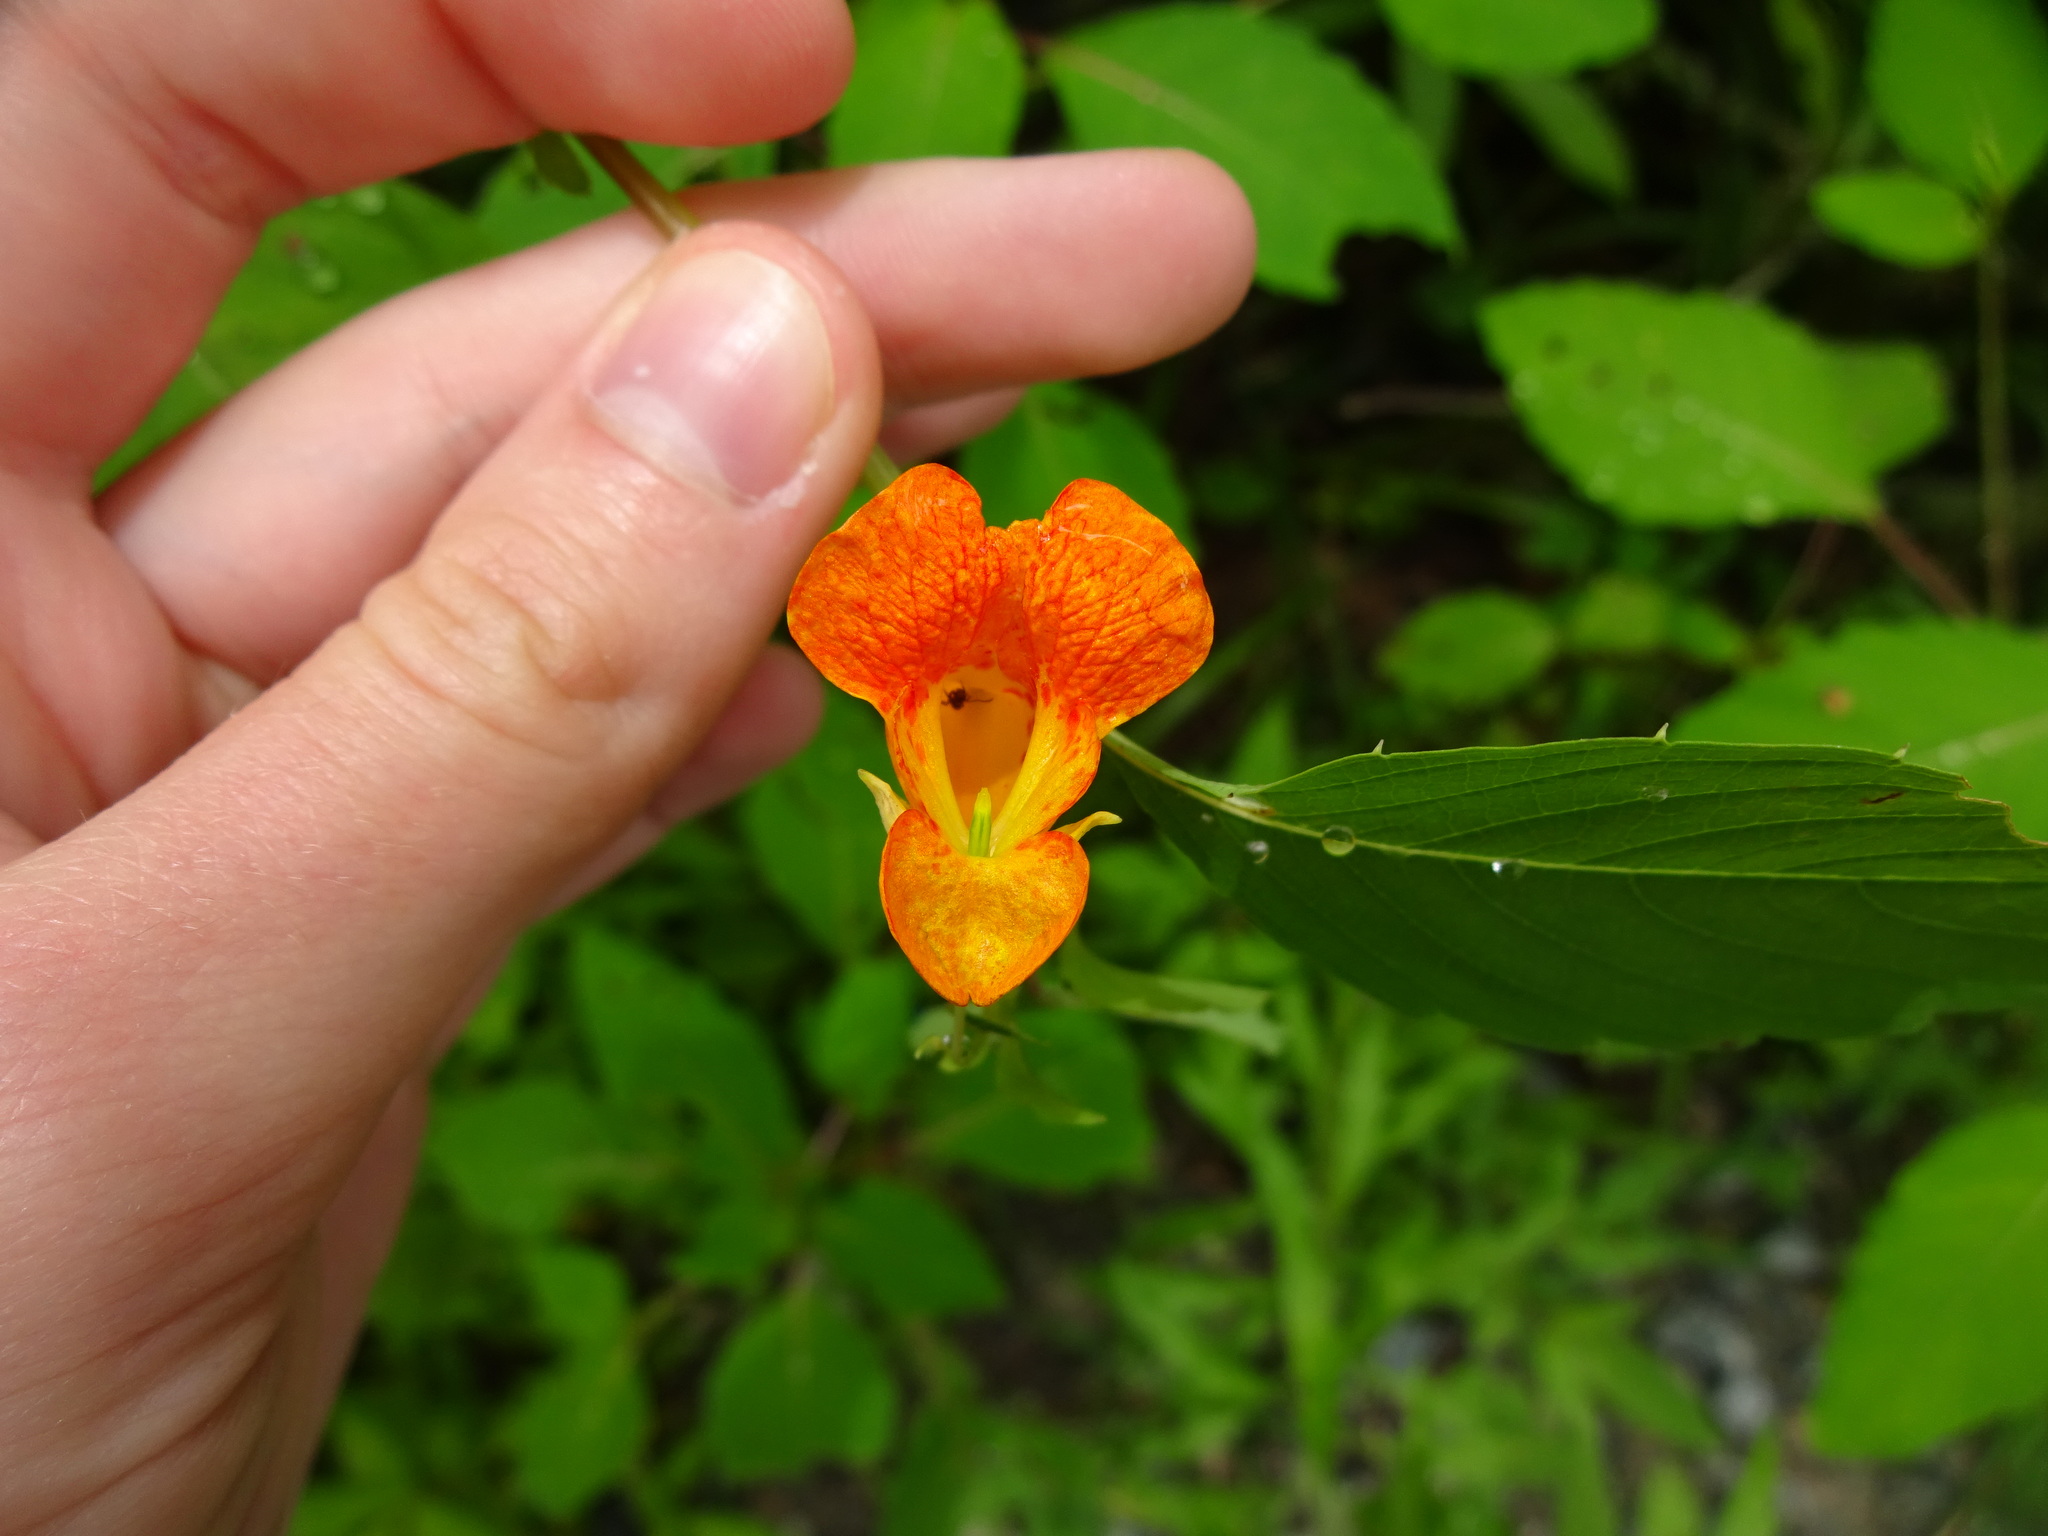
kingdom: Plantae
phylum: Tracheophyta
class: Magnoliopsida
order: Ericales
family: Balsaminaceae
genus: Impatiens
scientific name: Impatiens capensis
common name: Orange balsam
